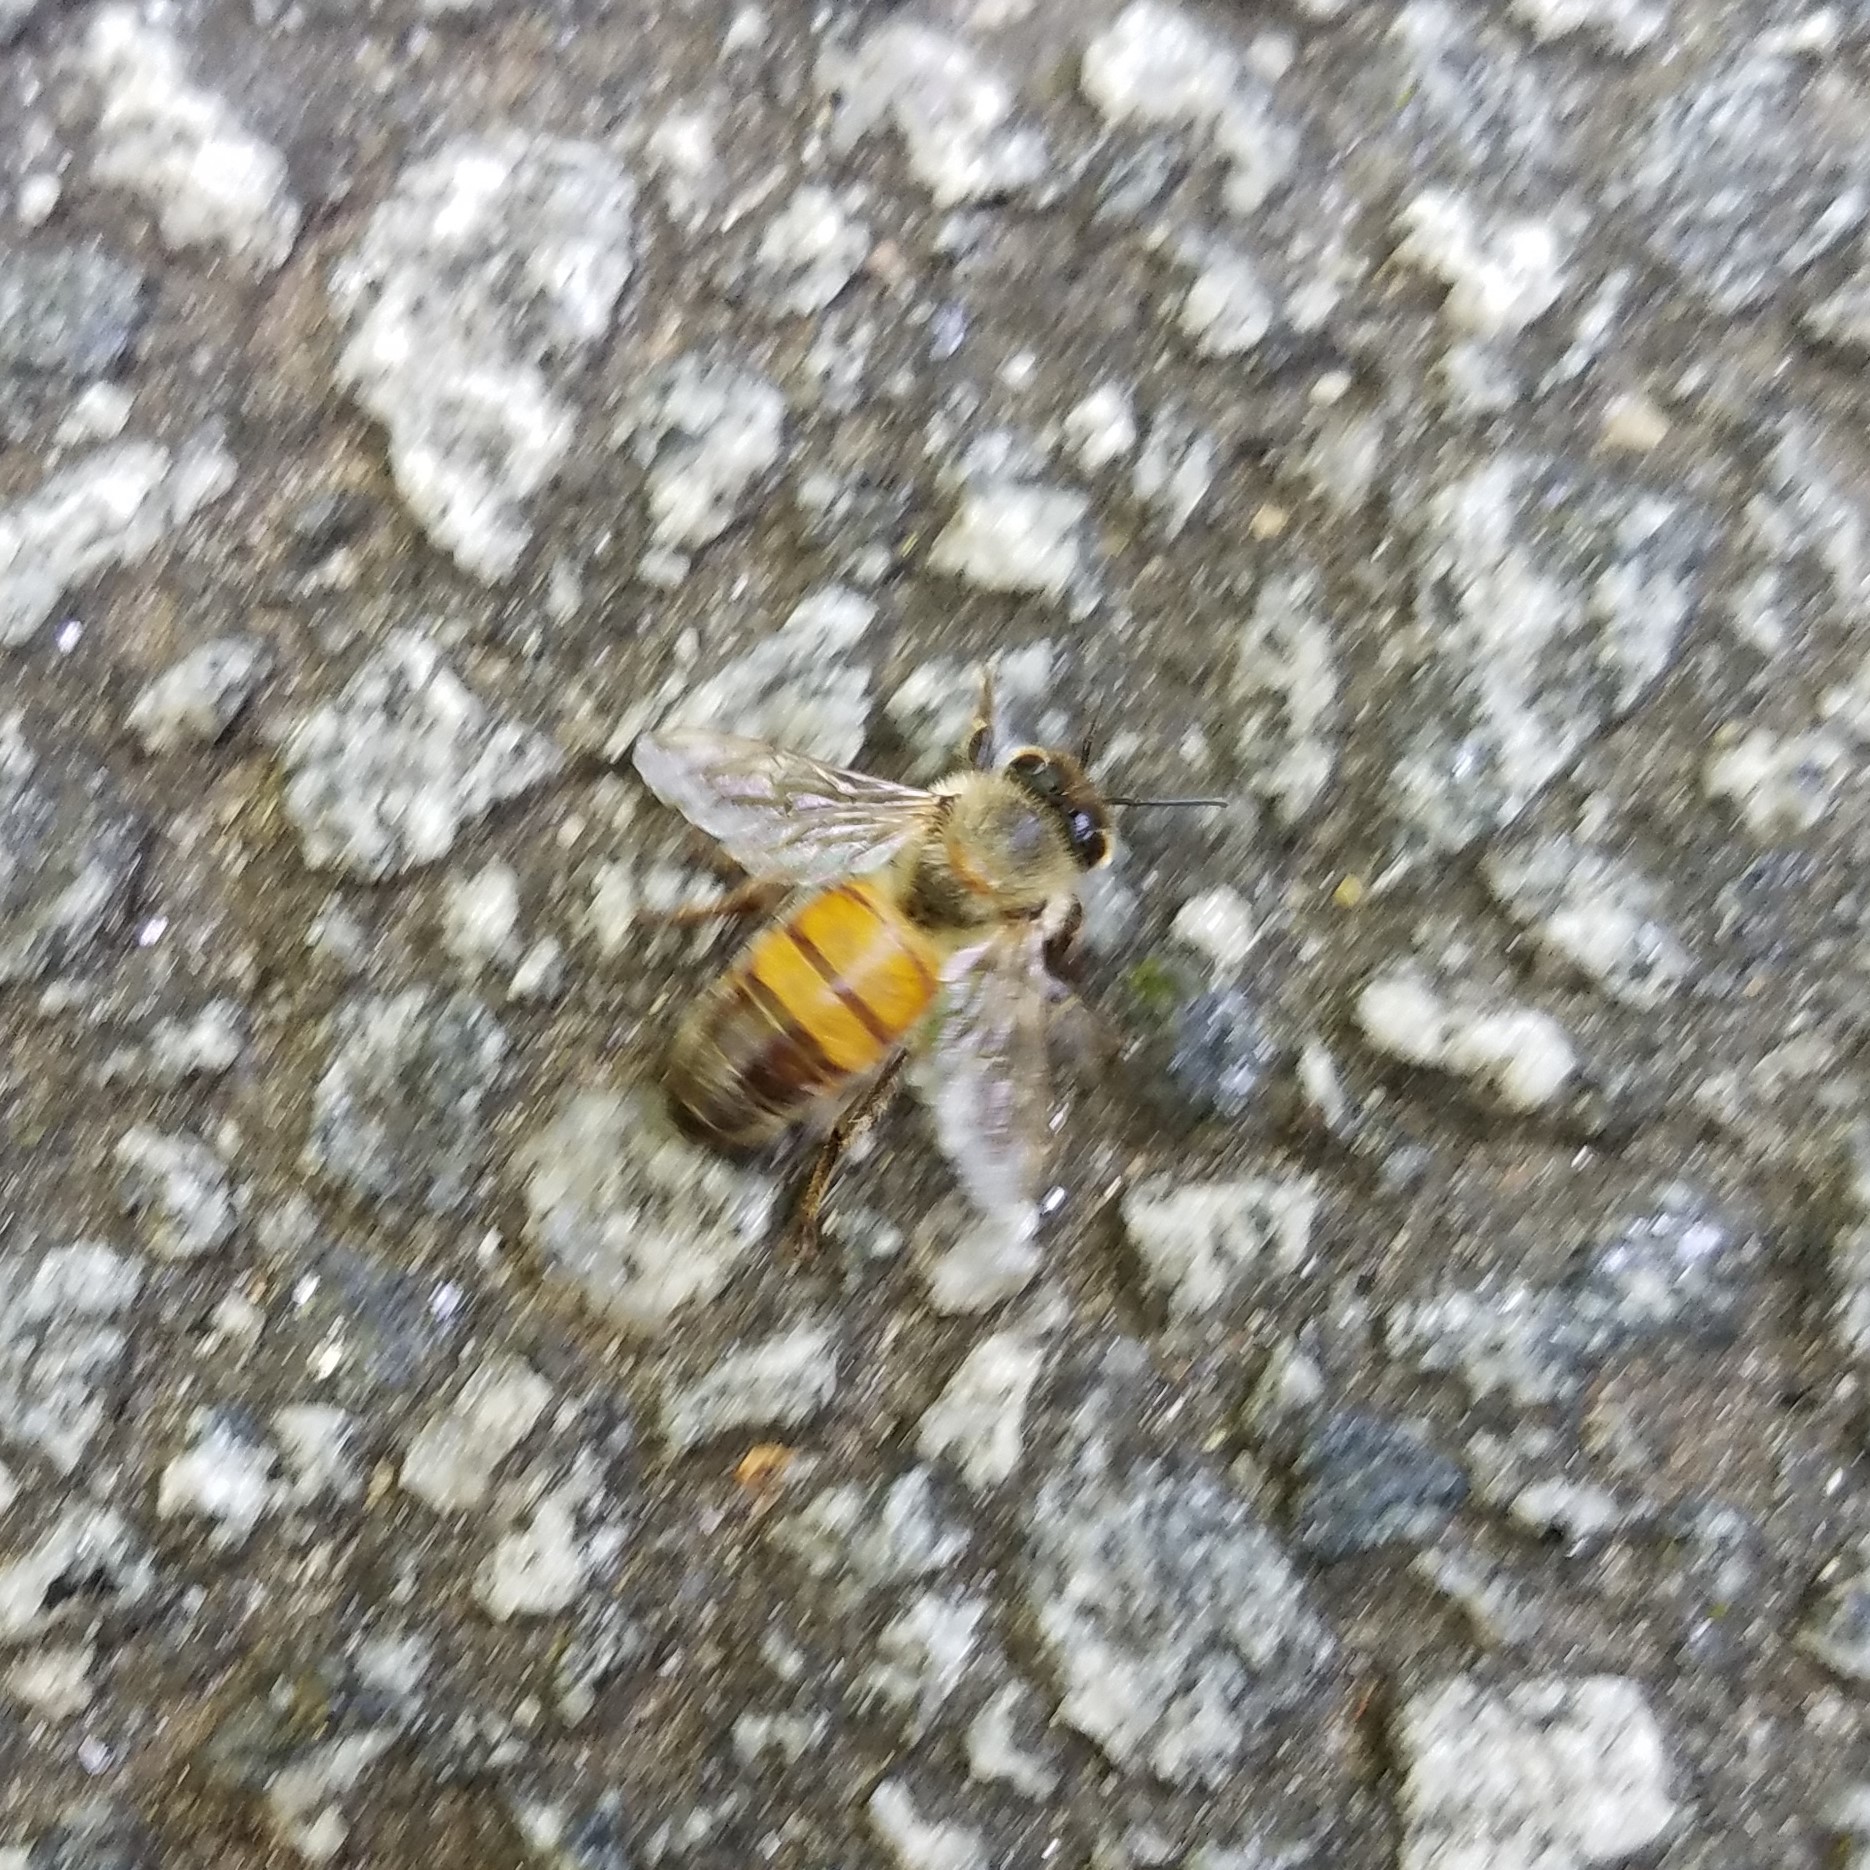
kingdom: Animalia
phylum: Arthropoda
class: Insecta
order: Hymenoptera
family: Apidae
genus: Apis
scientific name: Apis mellifera
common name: Honey bee
